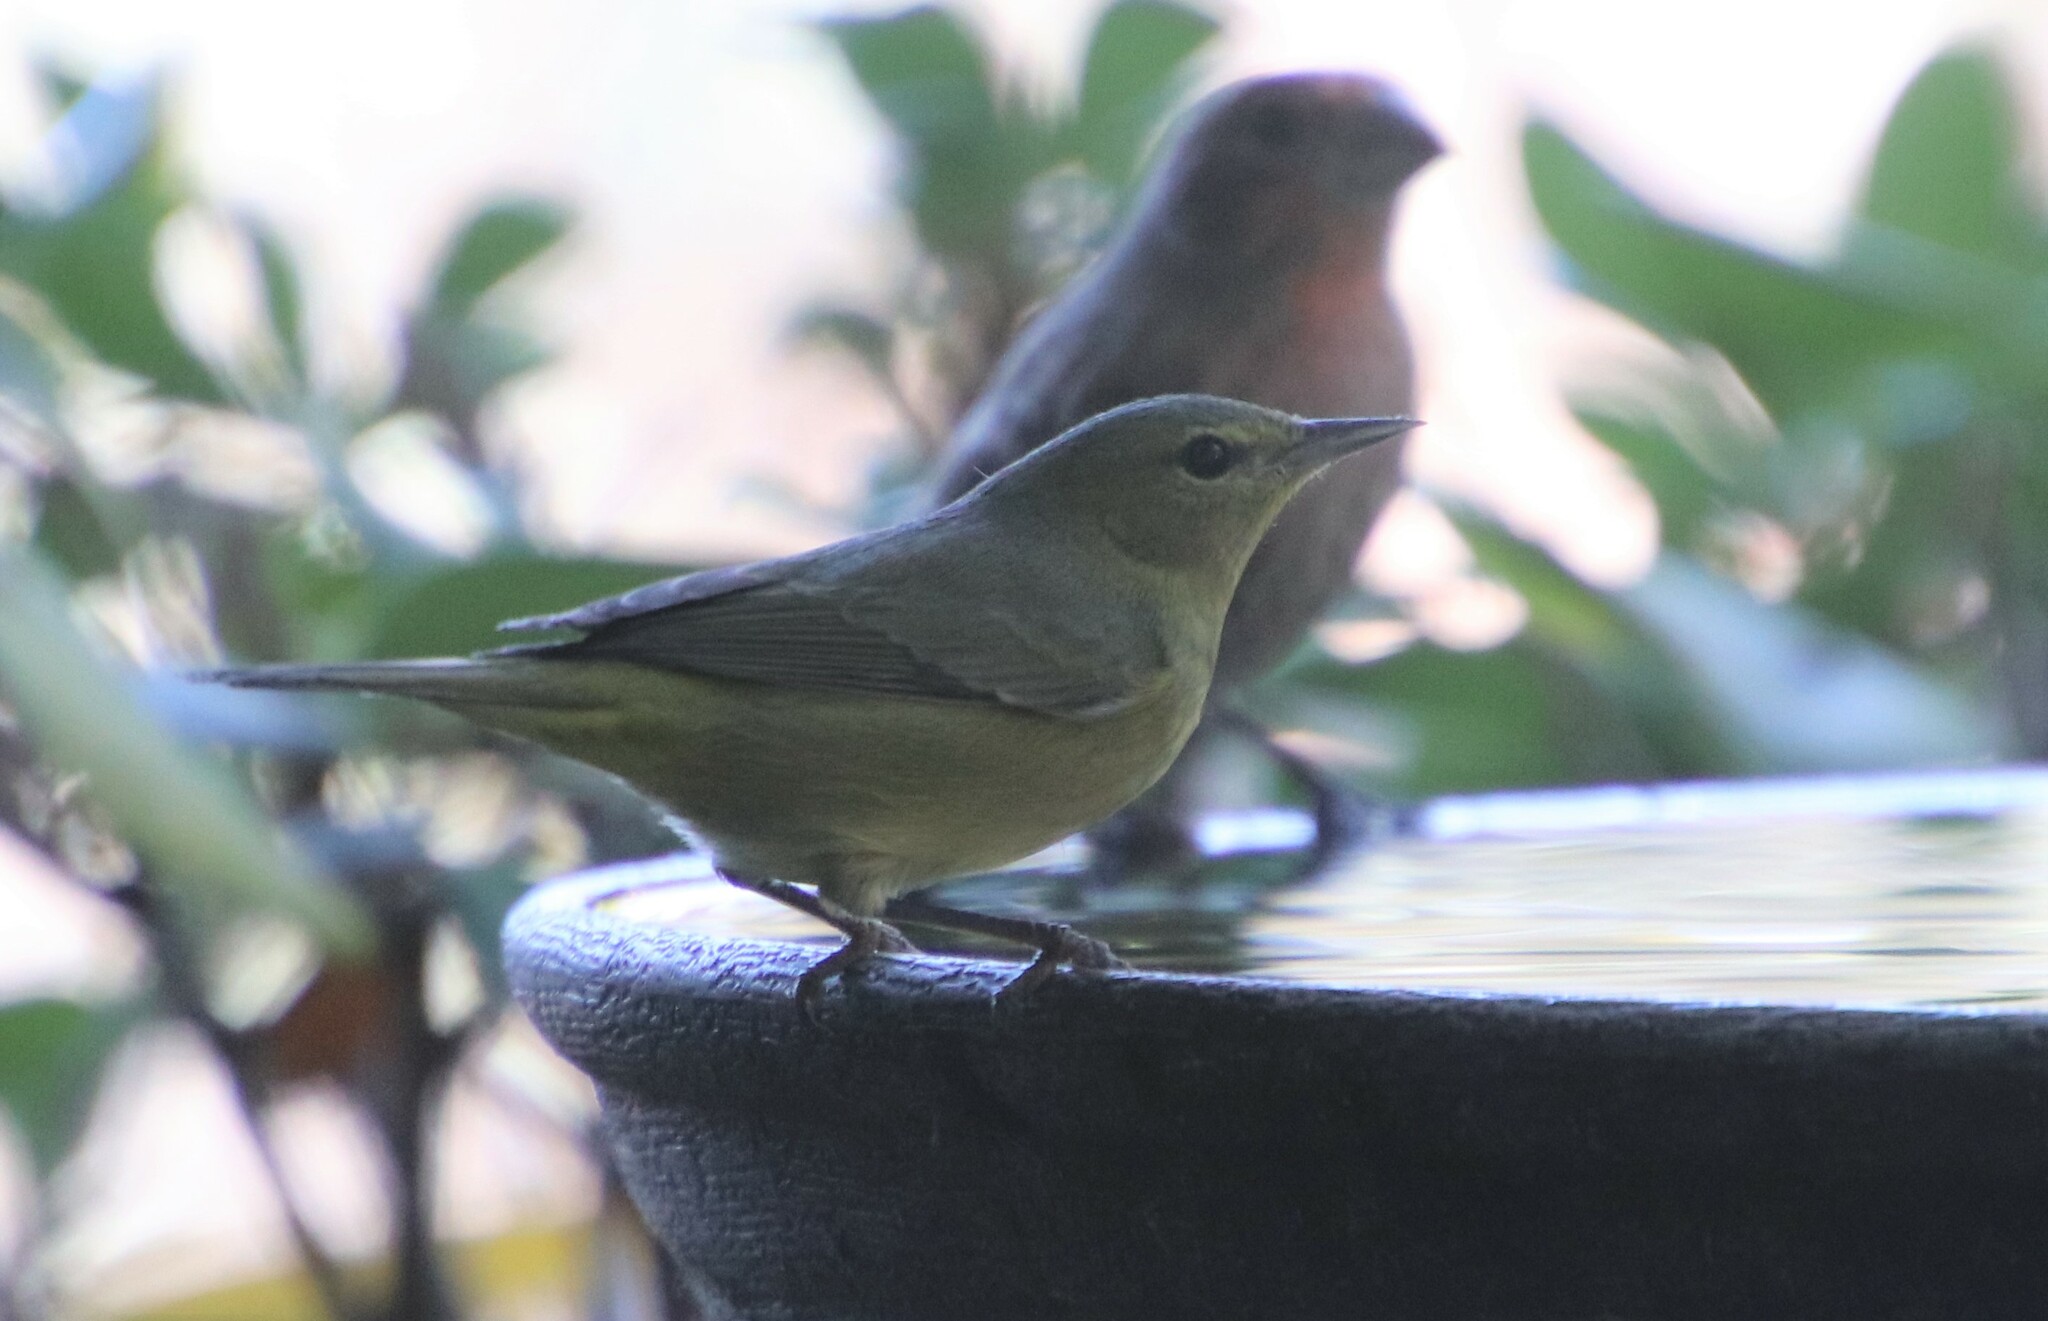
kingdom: Animalia
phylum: Chordata
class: Aves
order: Passeriformes
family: Parulidae
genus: Leiothlypis
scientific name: Leiothlypis celata
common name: Orange-crowned warbler
